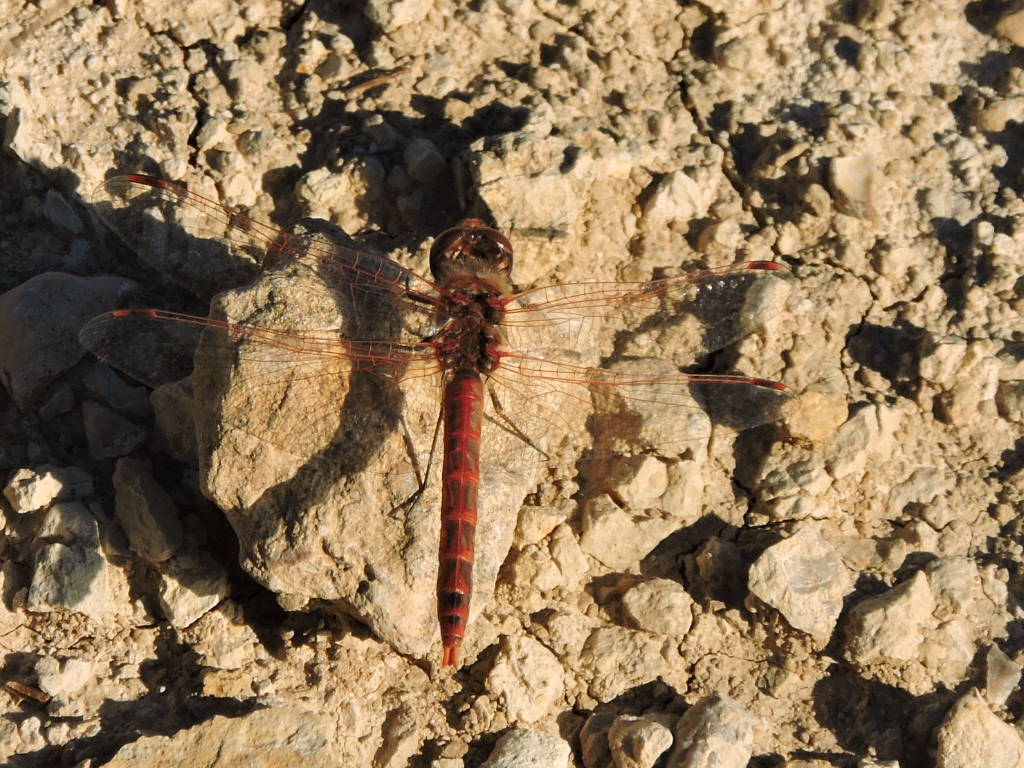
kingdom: Animalia
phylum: Arthropoda
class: Insecta
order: Odonata
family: Libellulidae
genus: Sympetrum
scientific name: Sympetrum corruptum
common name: Variegated meadowhawk
